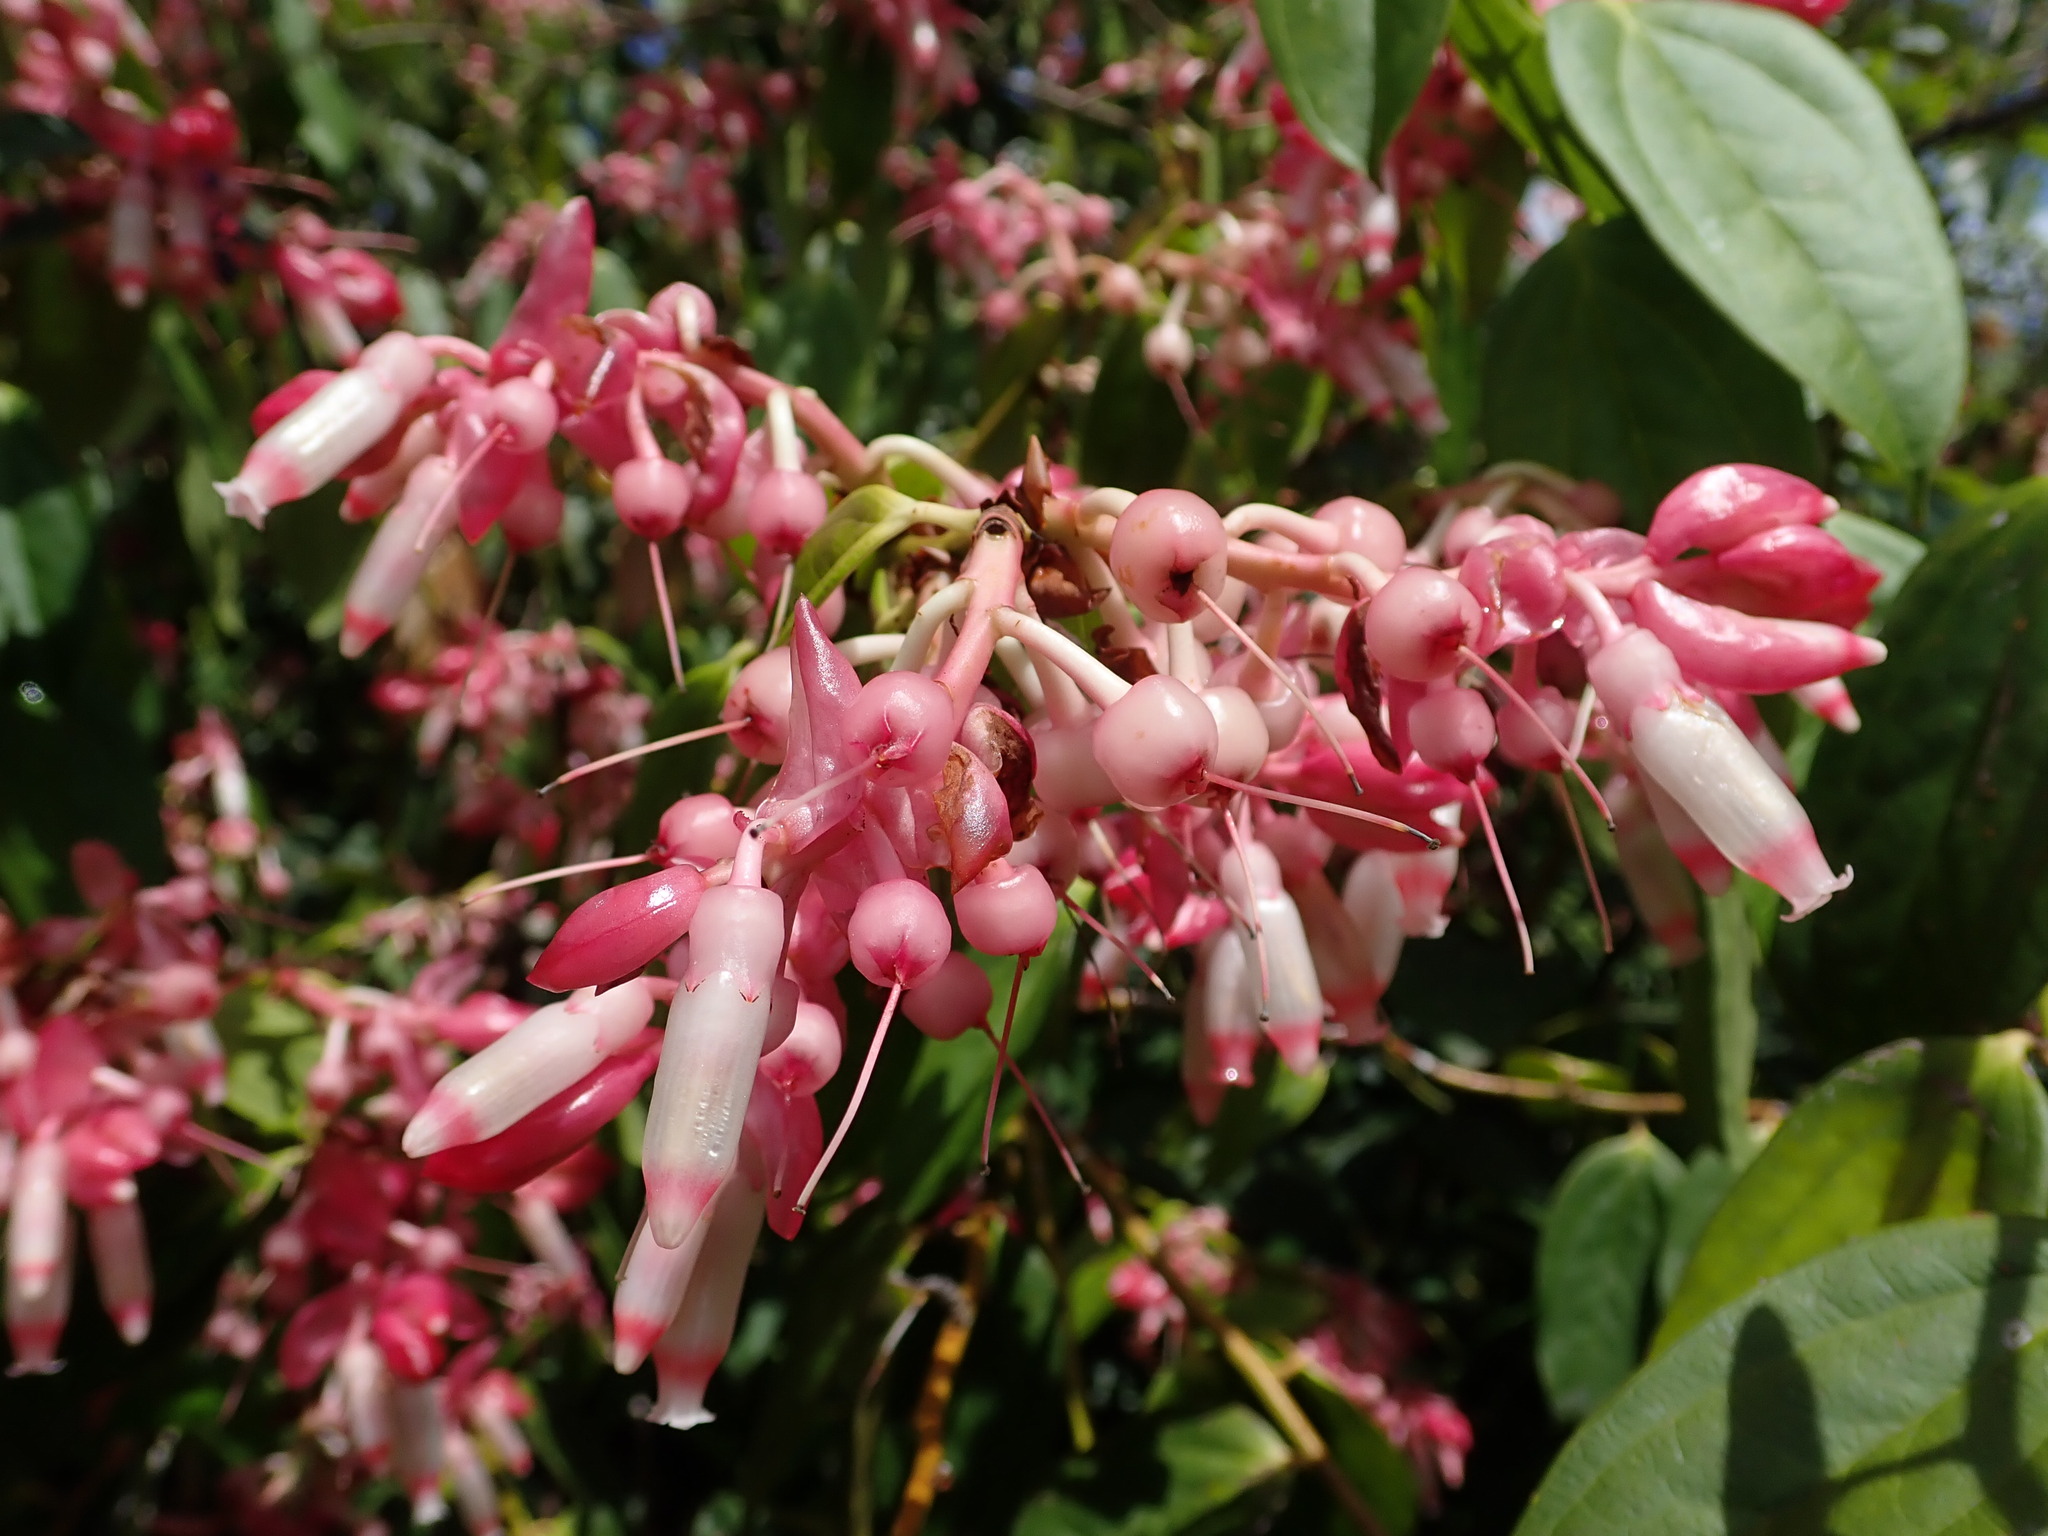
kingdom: Plantae
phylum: Tracheophyta
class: Magnoliopsida
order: Ericales
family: Ericaceae
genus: Cavendishia
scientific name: Cavendishia tarapotana
